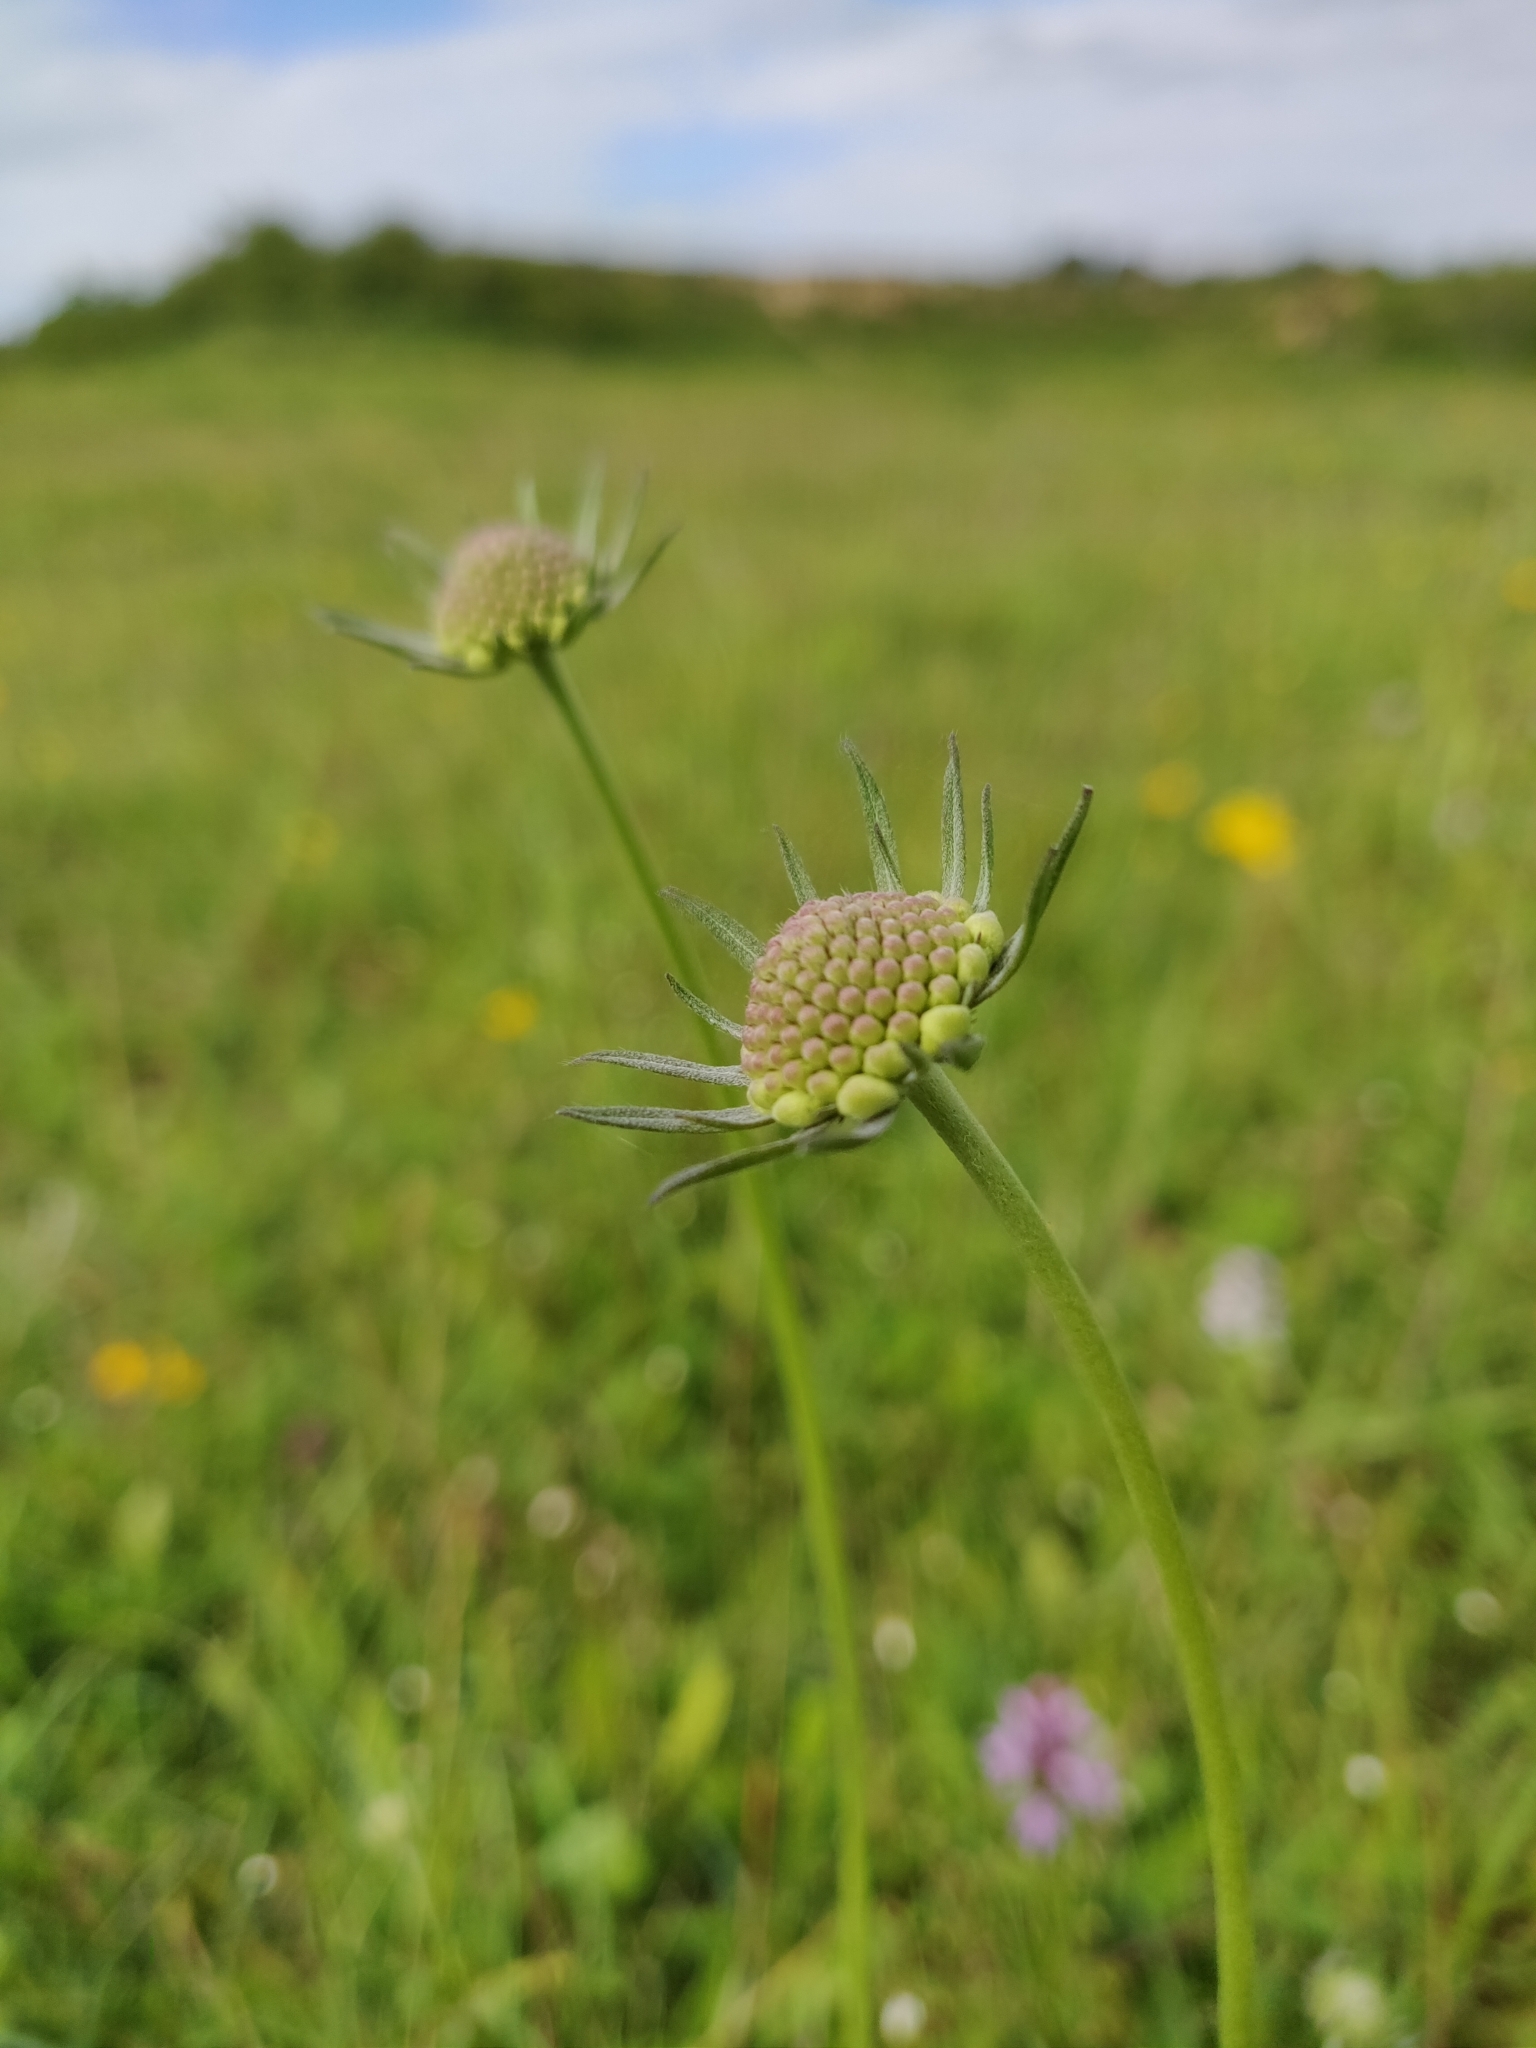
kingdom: Plantae
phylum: Tracheophyta
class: Magnoliopsida
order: Dipsacales
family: Caprifoliaceae
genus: Scabiosa
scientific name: Scabiosa columbaria
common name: Small scabious
